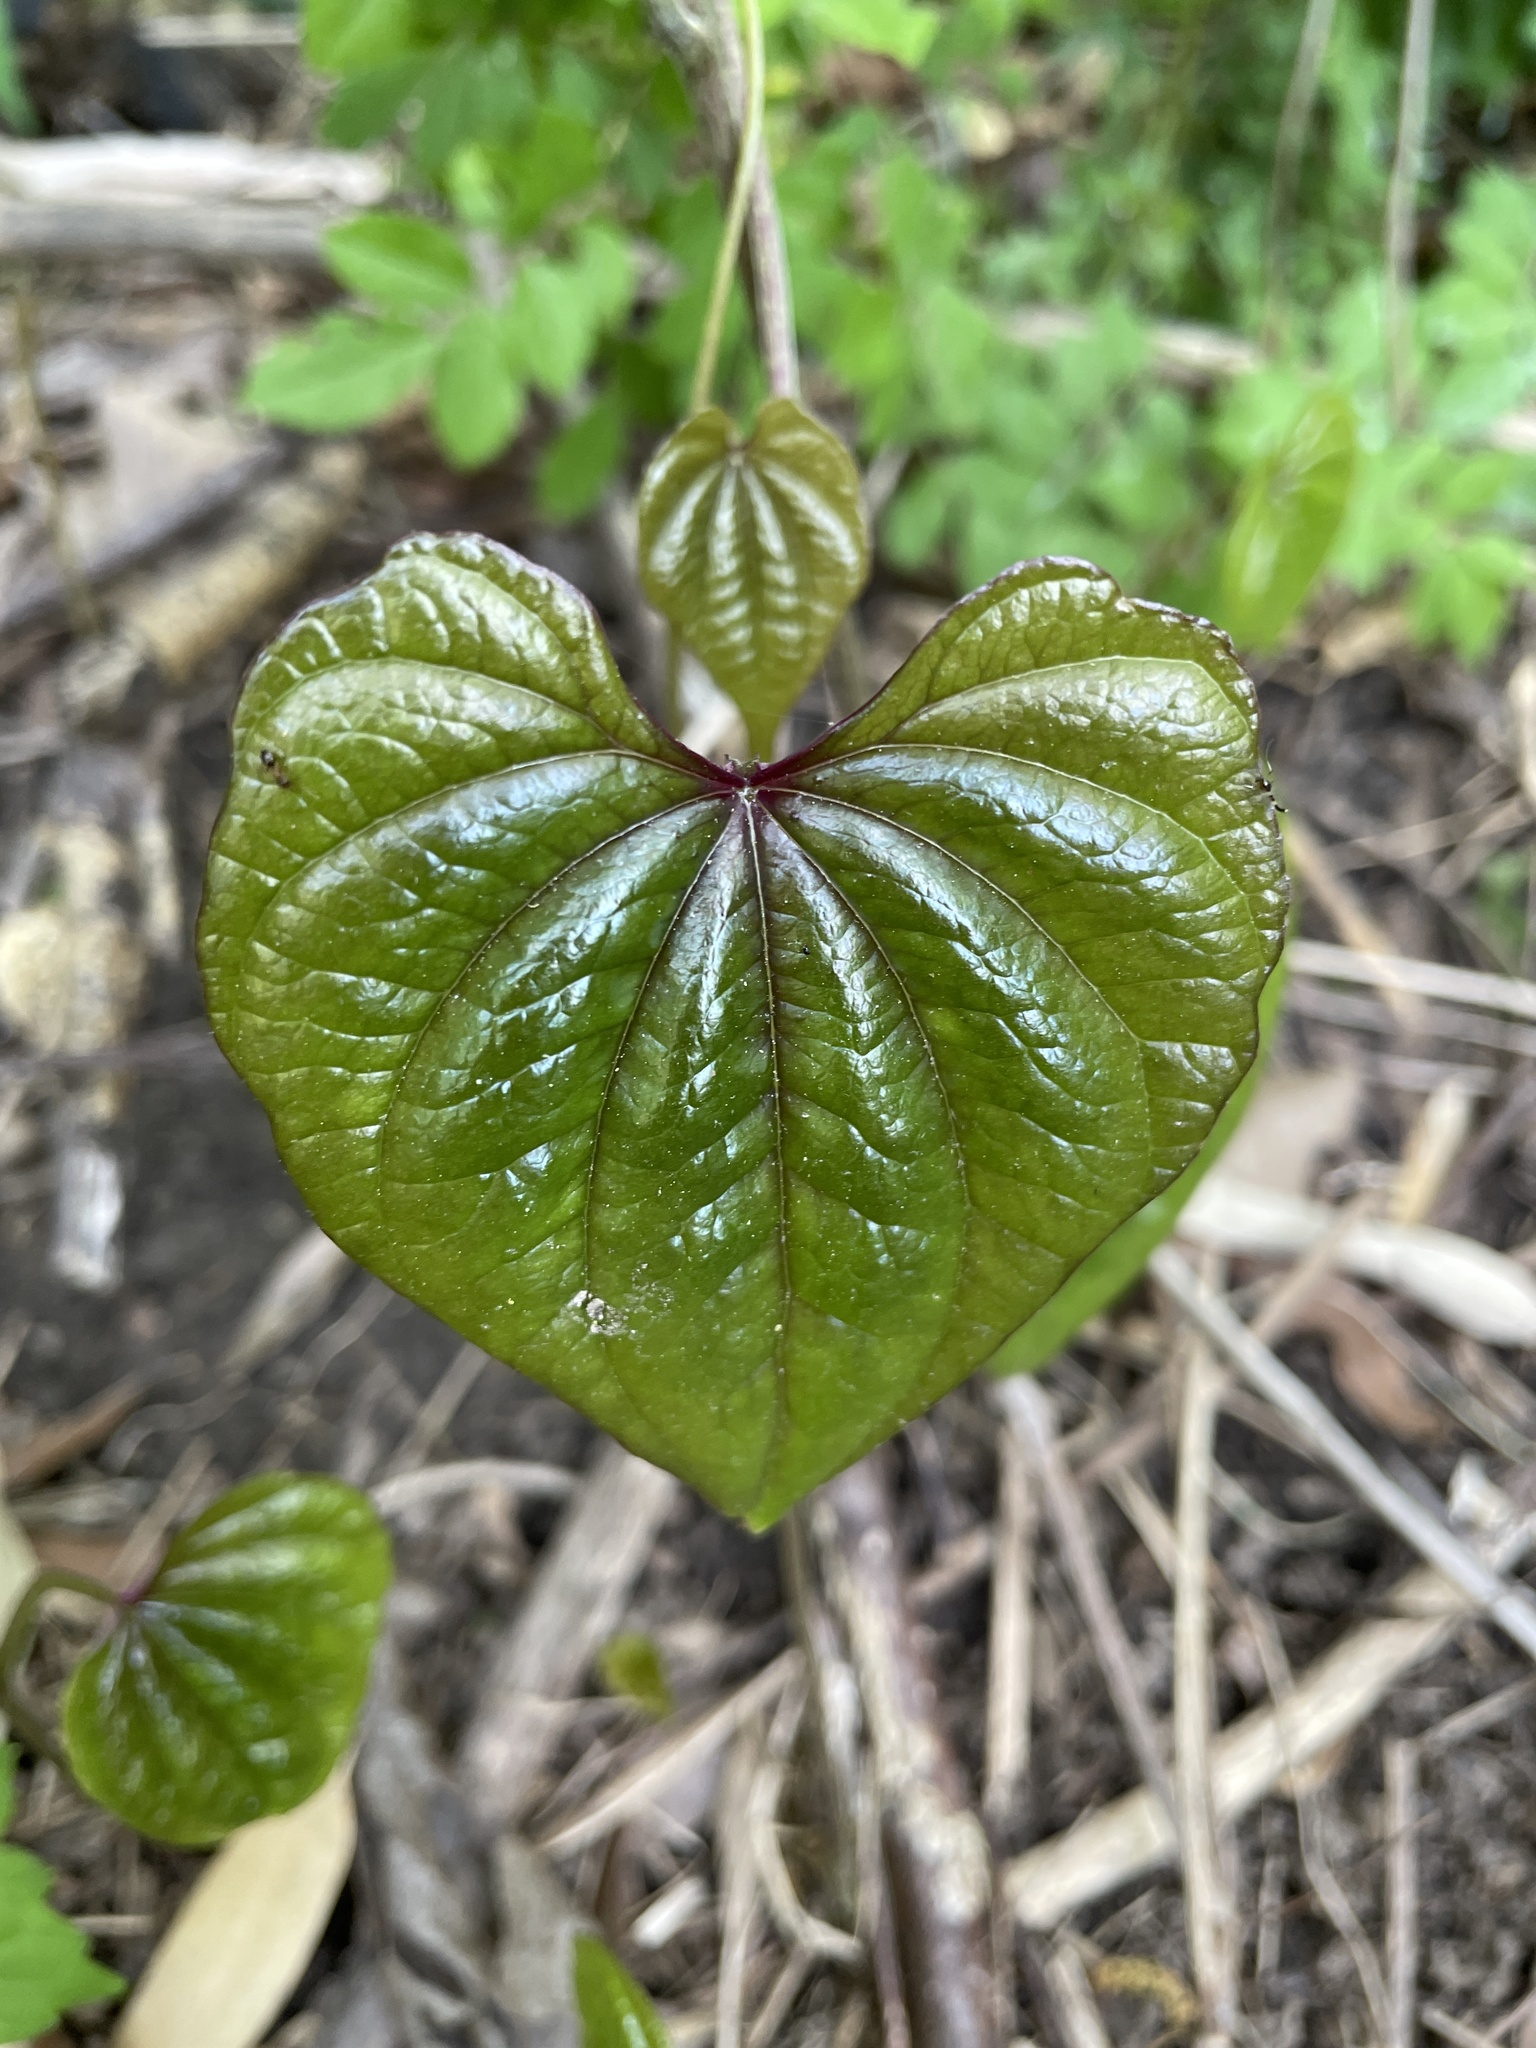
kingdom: Plantae
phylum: Tracheophyta
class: Liliopsida
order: Dioscoreales
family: Dioscoreaceae
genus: Dioscorea
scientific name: Dioscorea polystachya
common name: Chinese yam
